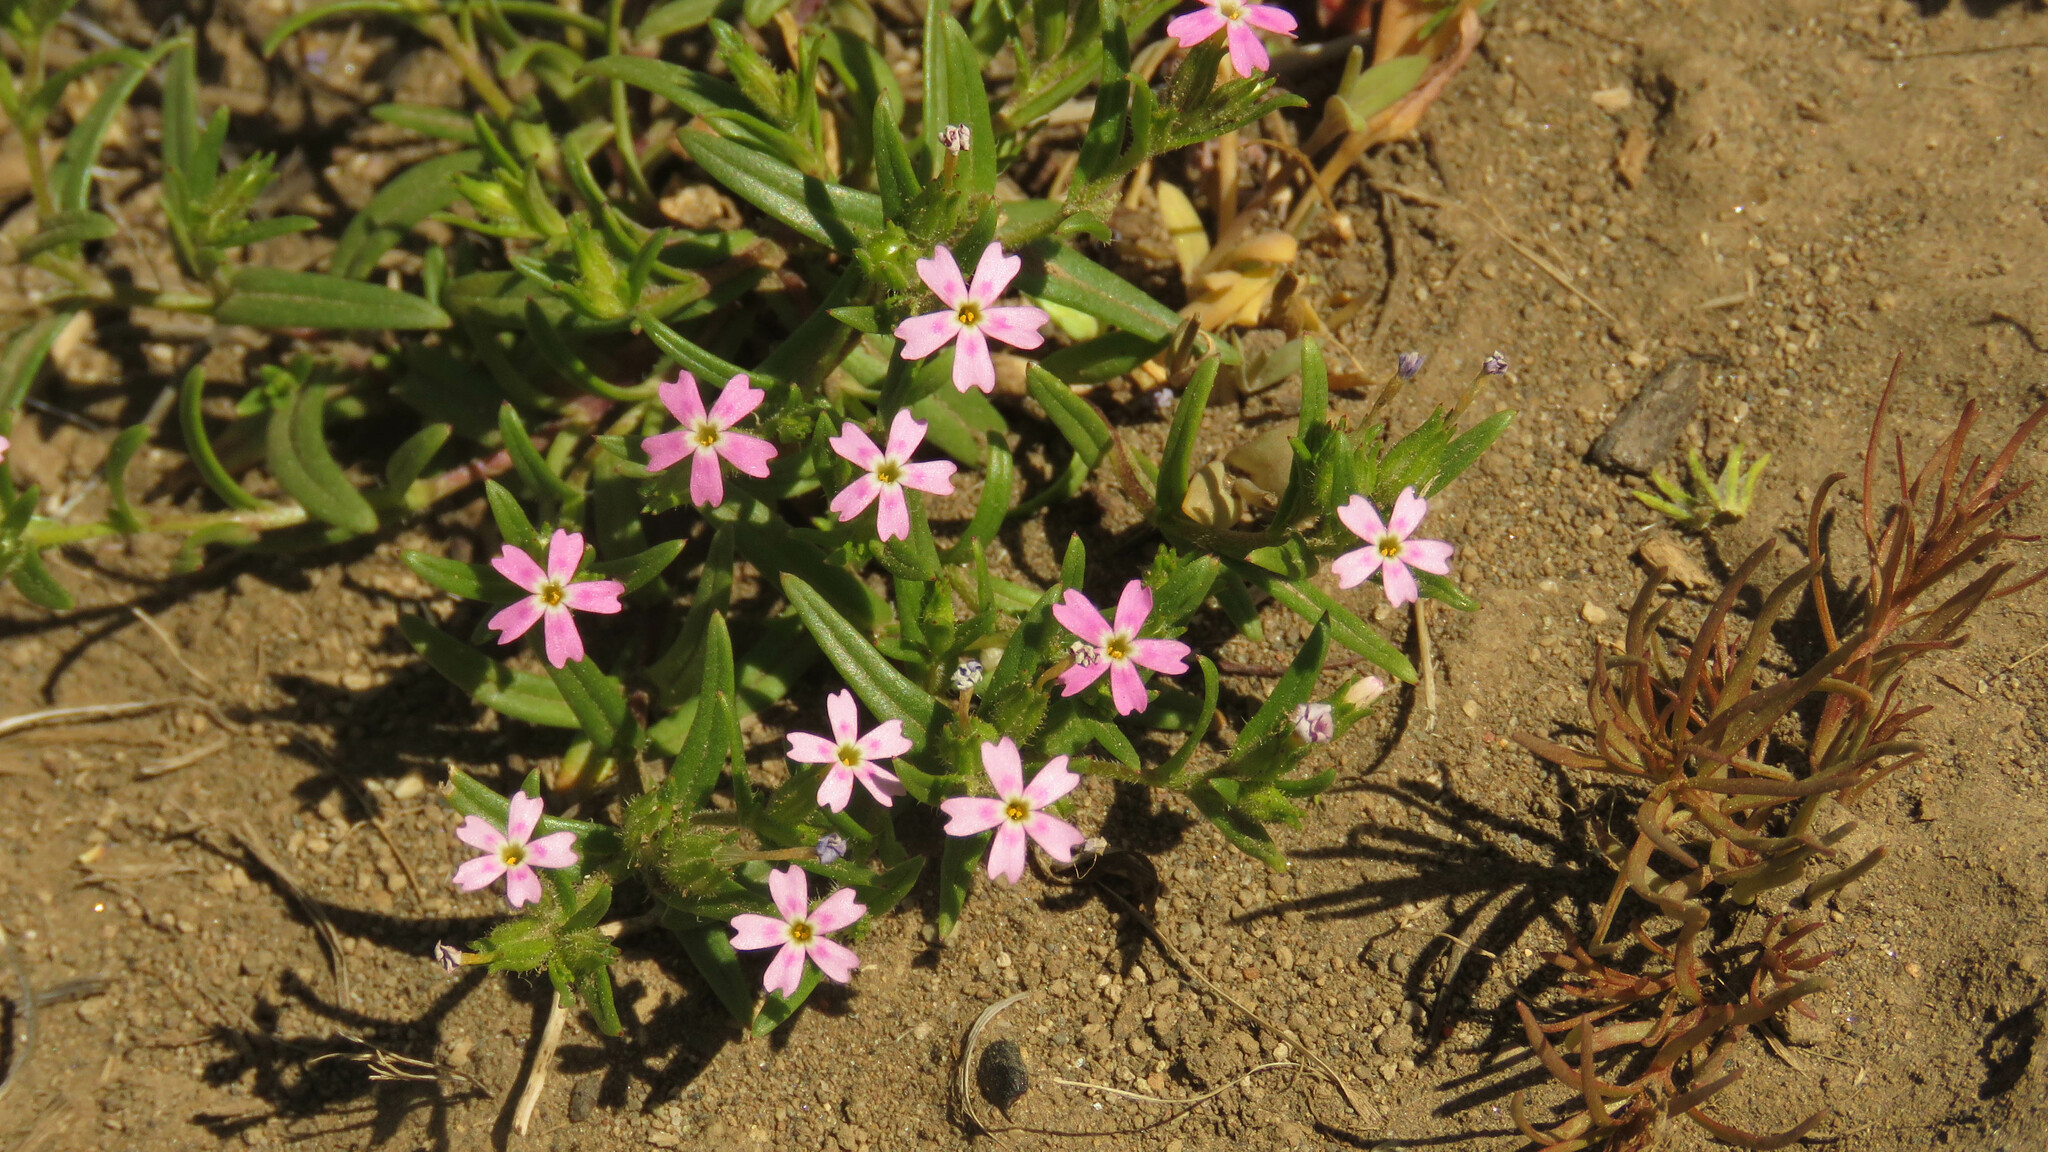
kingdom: Plantae
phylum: Tracheophyta
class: Magnoliopsida
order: Ericales
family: Polemoniaceae
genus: Phlox
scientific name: Phlox gracilis
